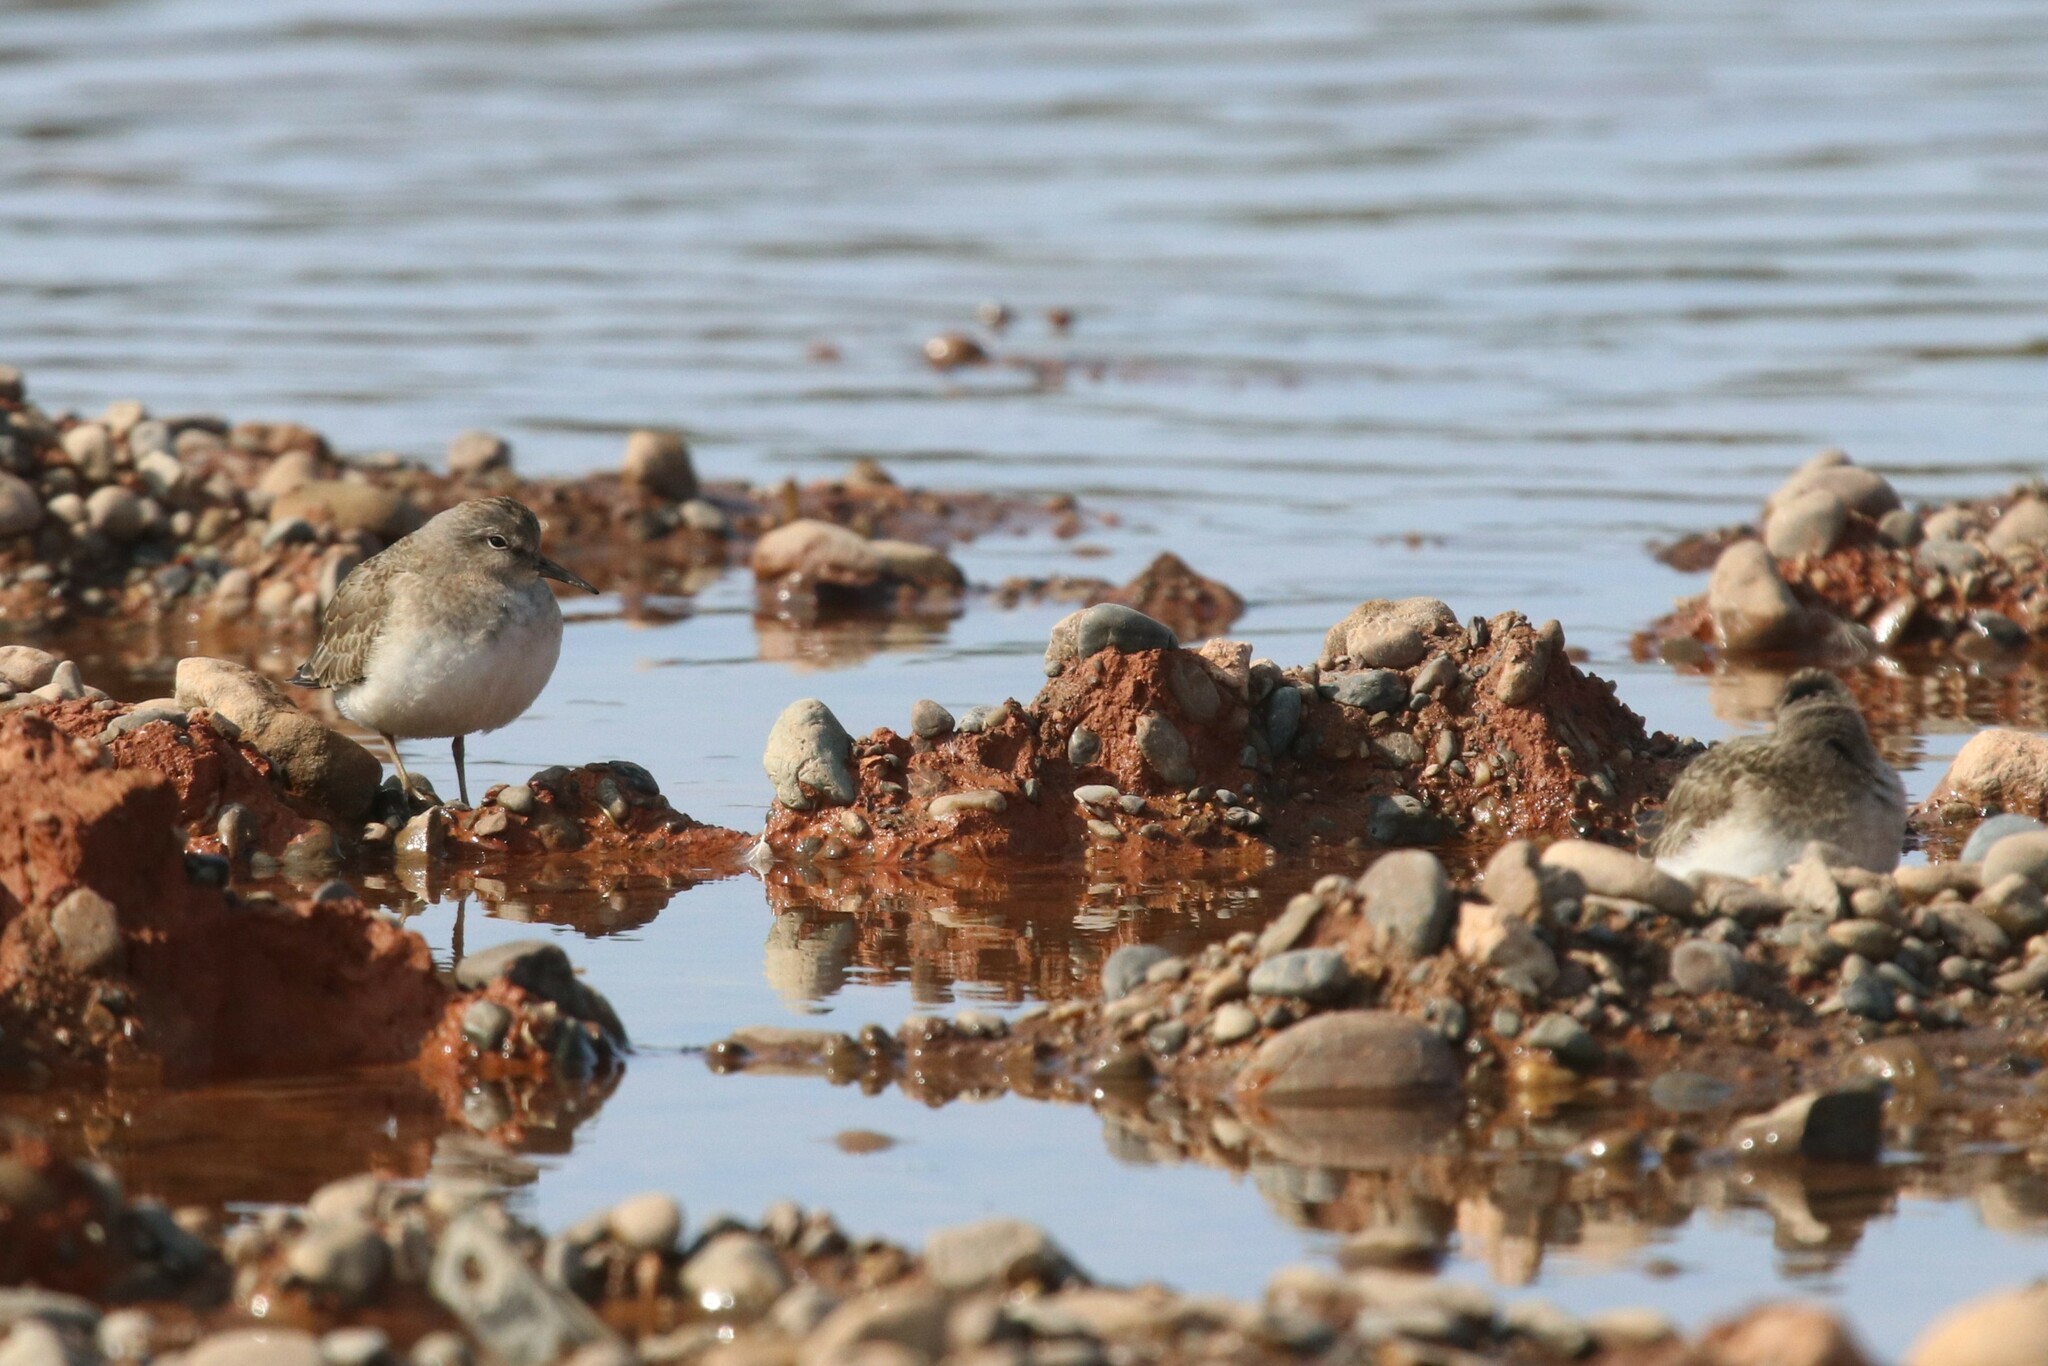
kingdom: Animalia
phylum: Chordata
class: Aves
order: Charadriiformes
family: Scolopacidae
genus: Calidris
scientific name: Calidris temminckii
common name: Temminck's stint
